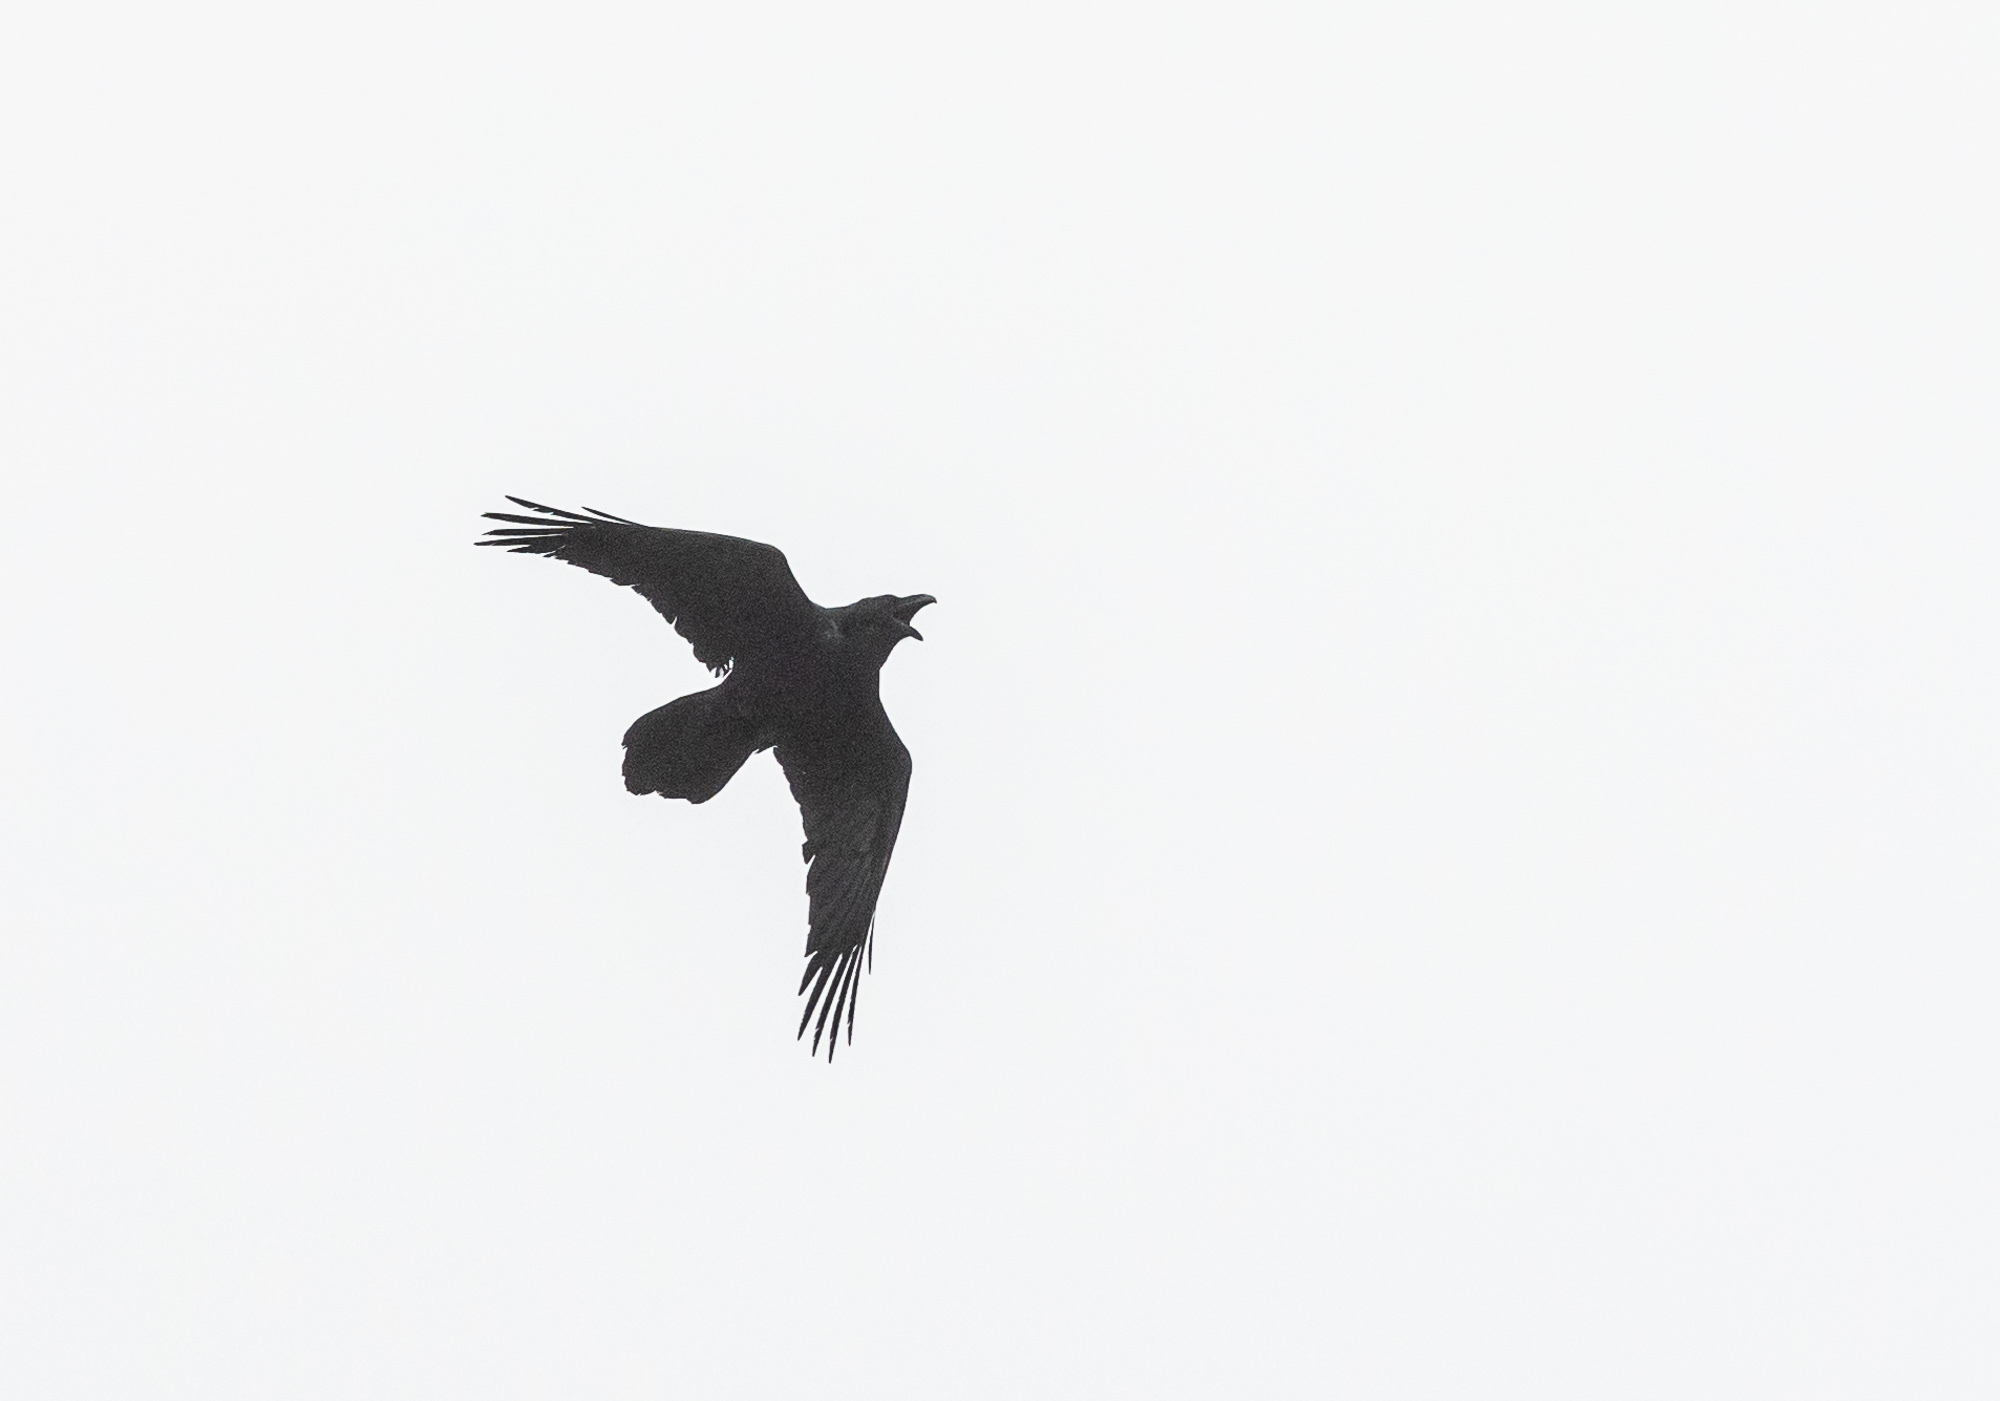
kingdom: Animalia
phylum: Chordata
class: Aves
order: Passeriformes
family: Corvidae
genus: Corvus
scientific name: Corvus corax
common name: Common raven
